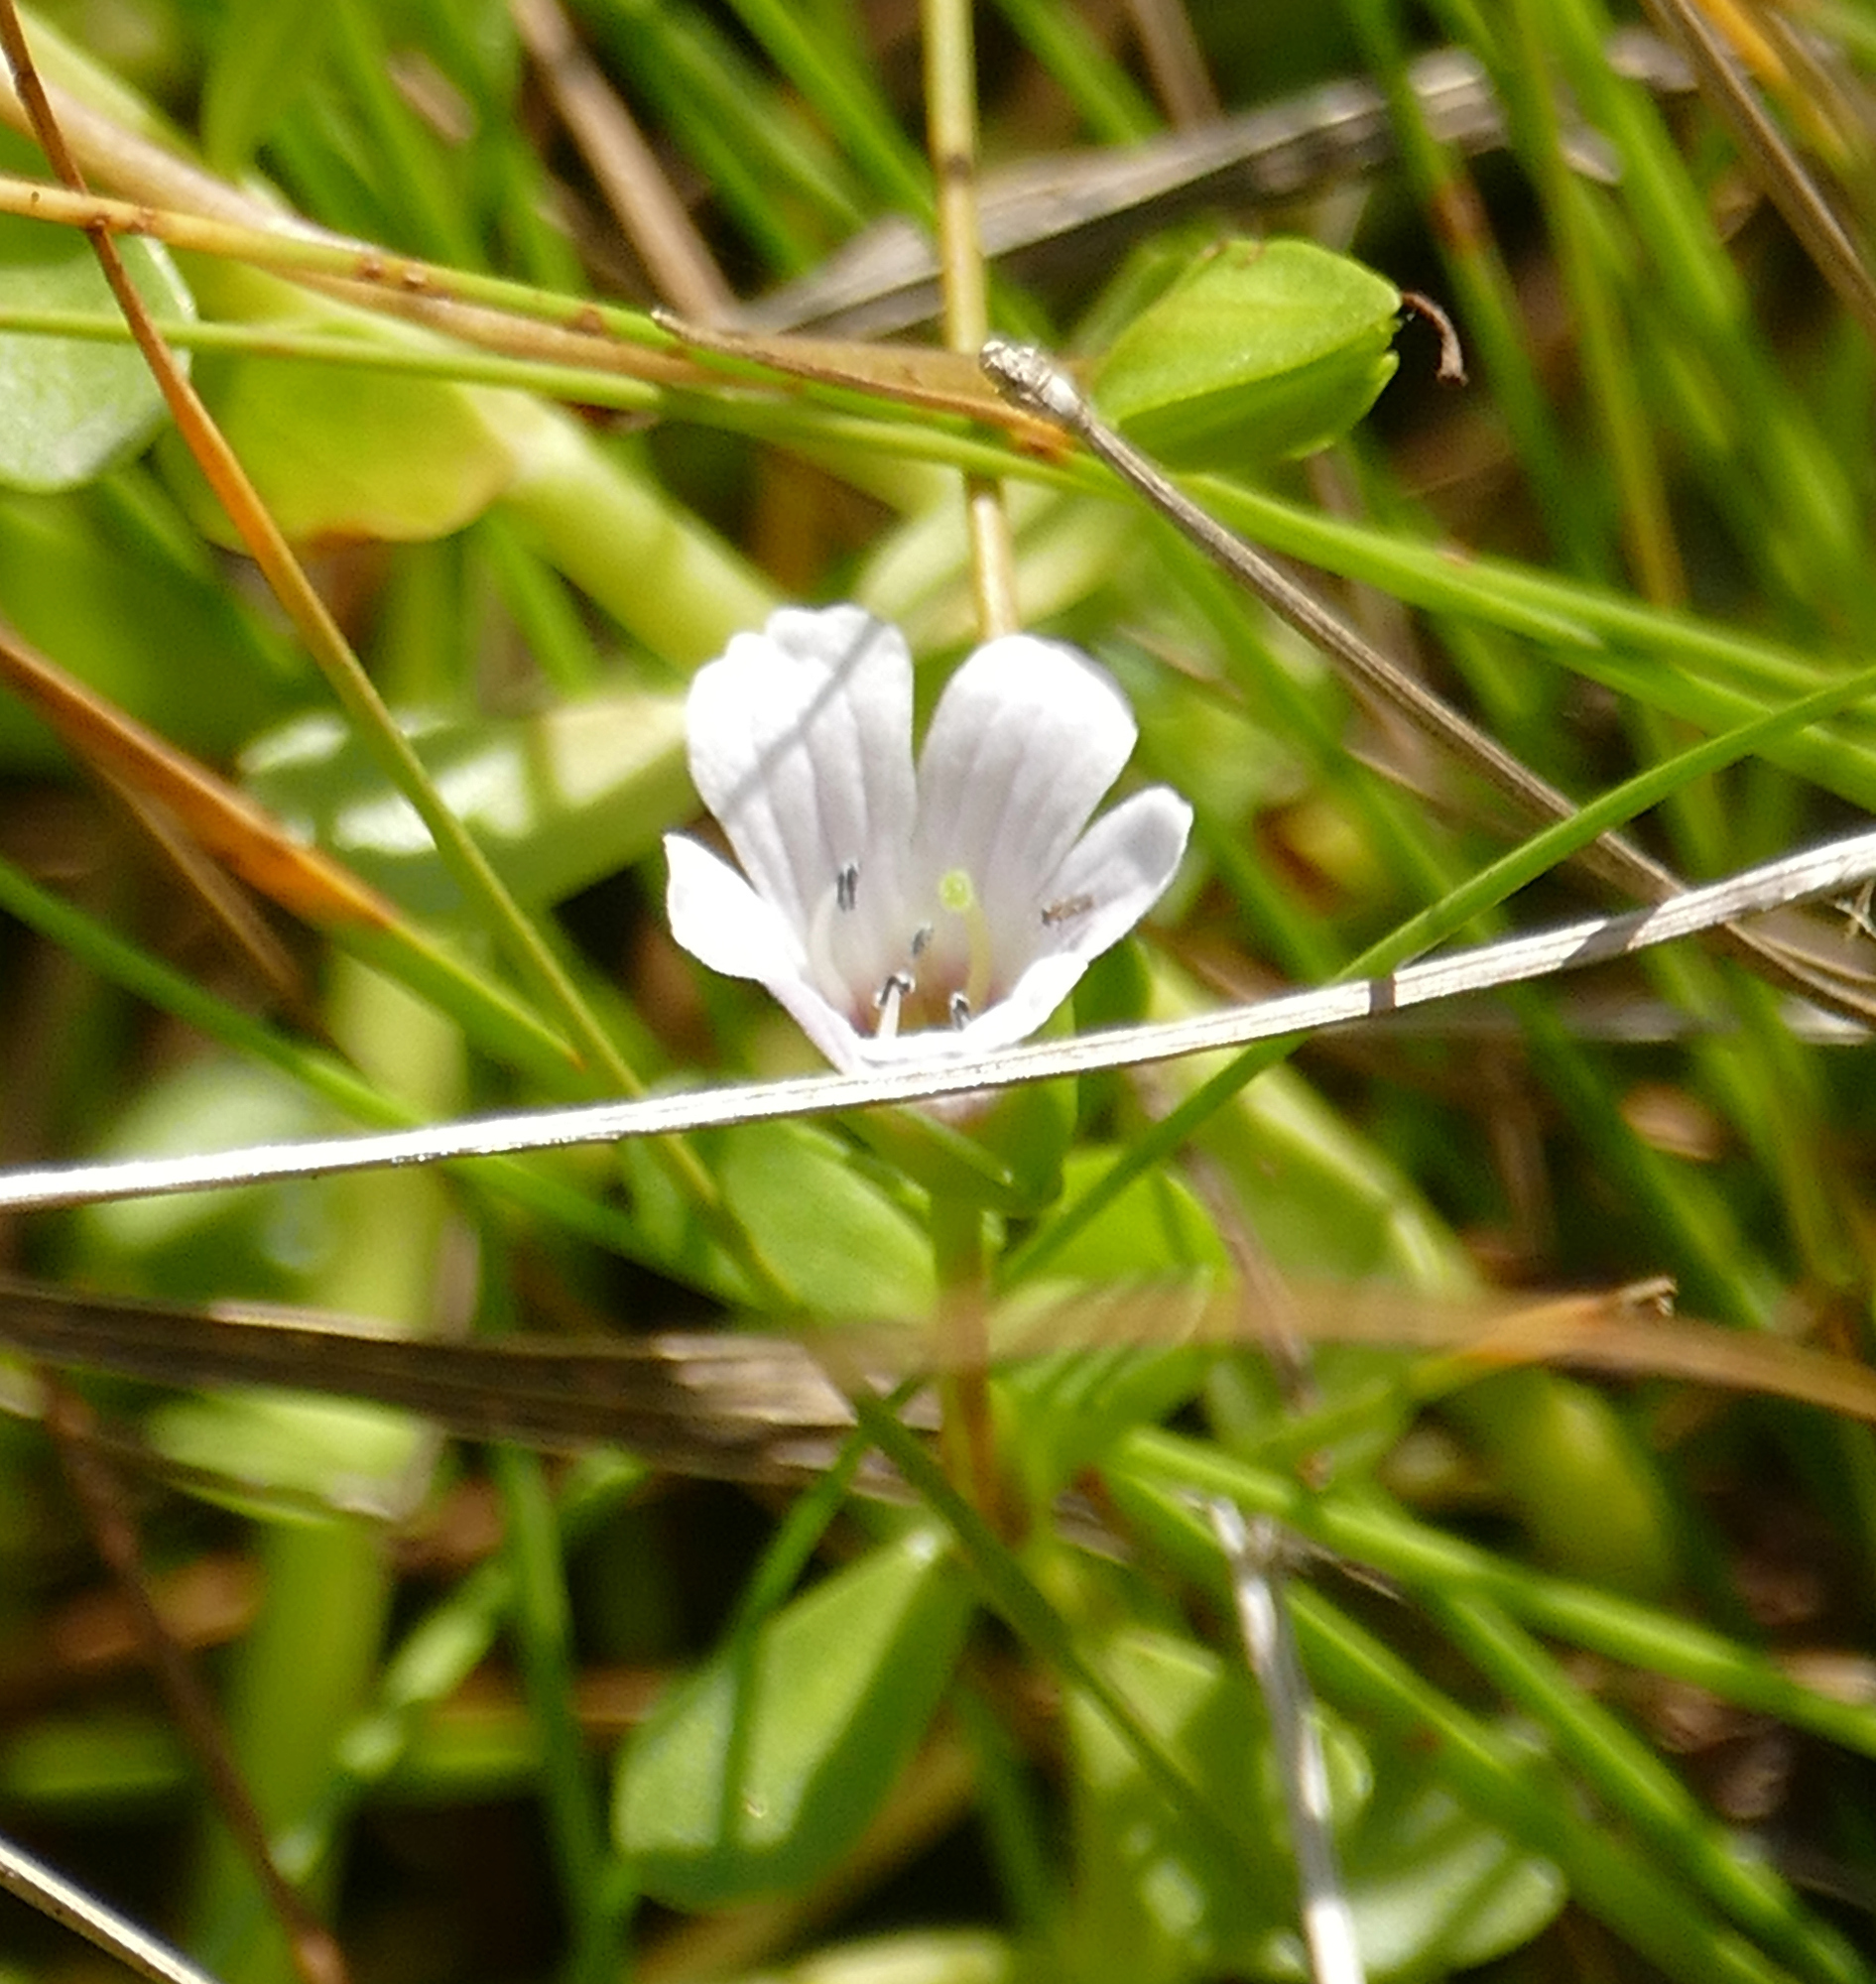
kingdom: Plantae
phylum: Tracheophyta
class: Magnoliopsida
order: Lamiales
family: Plantaginaceae
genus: Bacopa
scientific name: Bacopa monnieri
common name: Indian-pennywort
